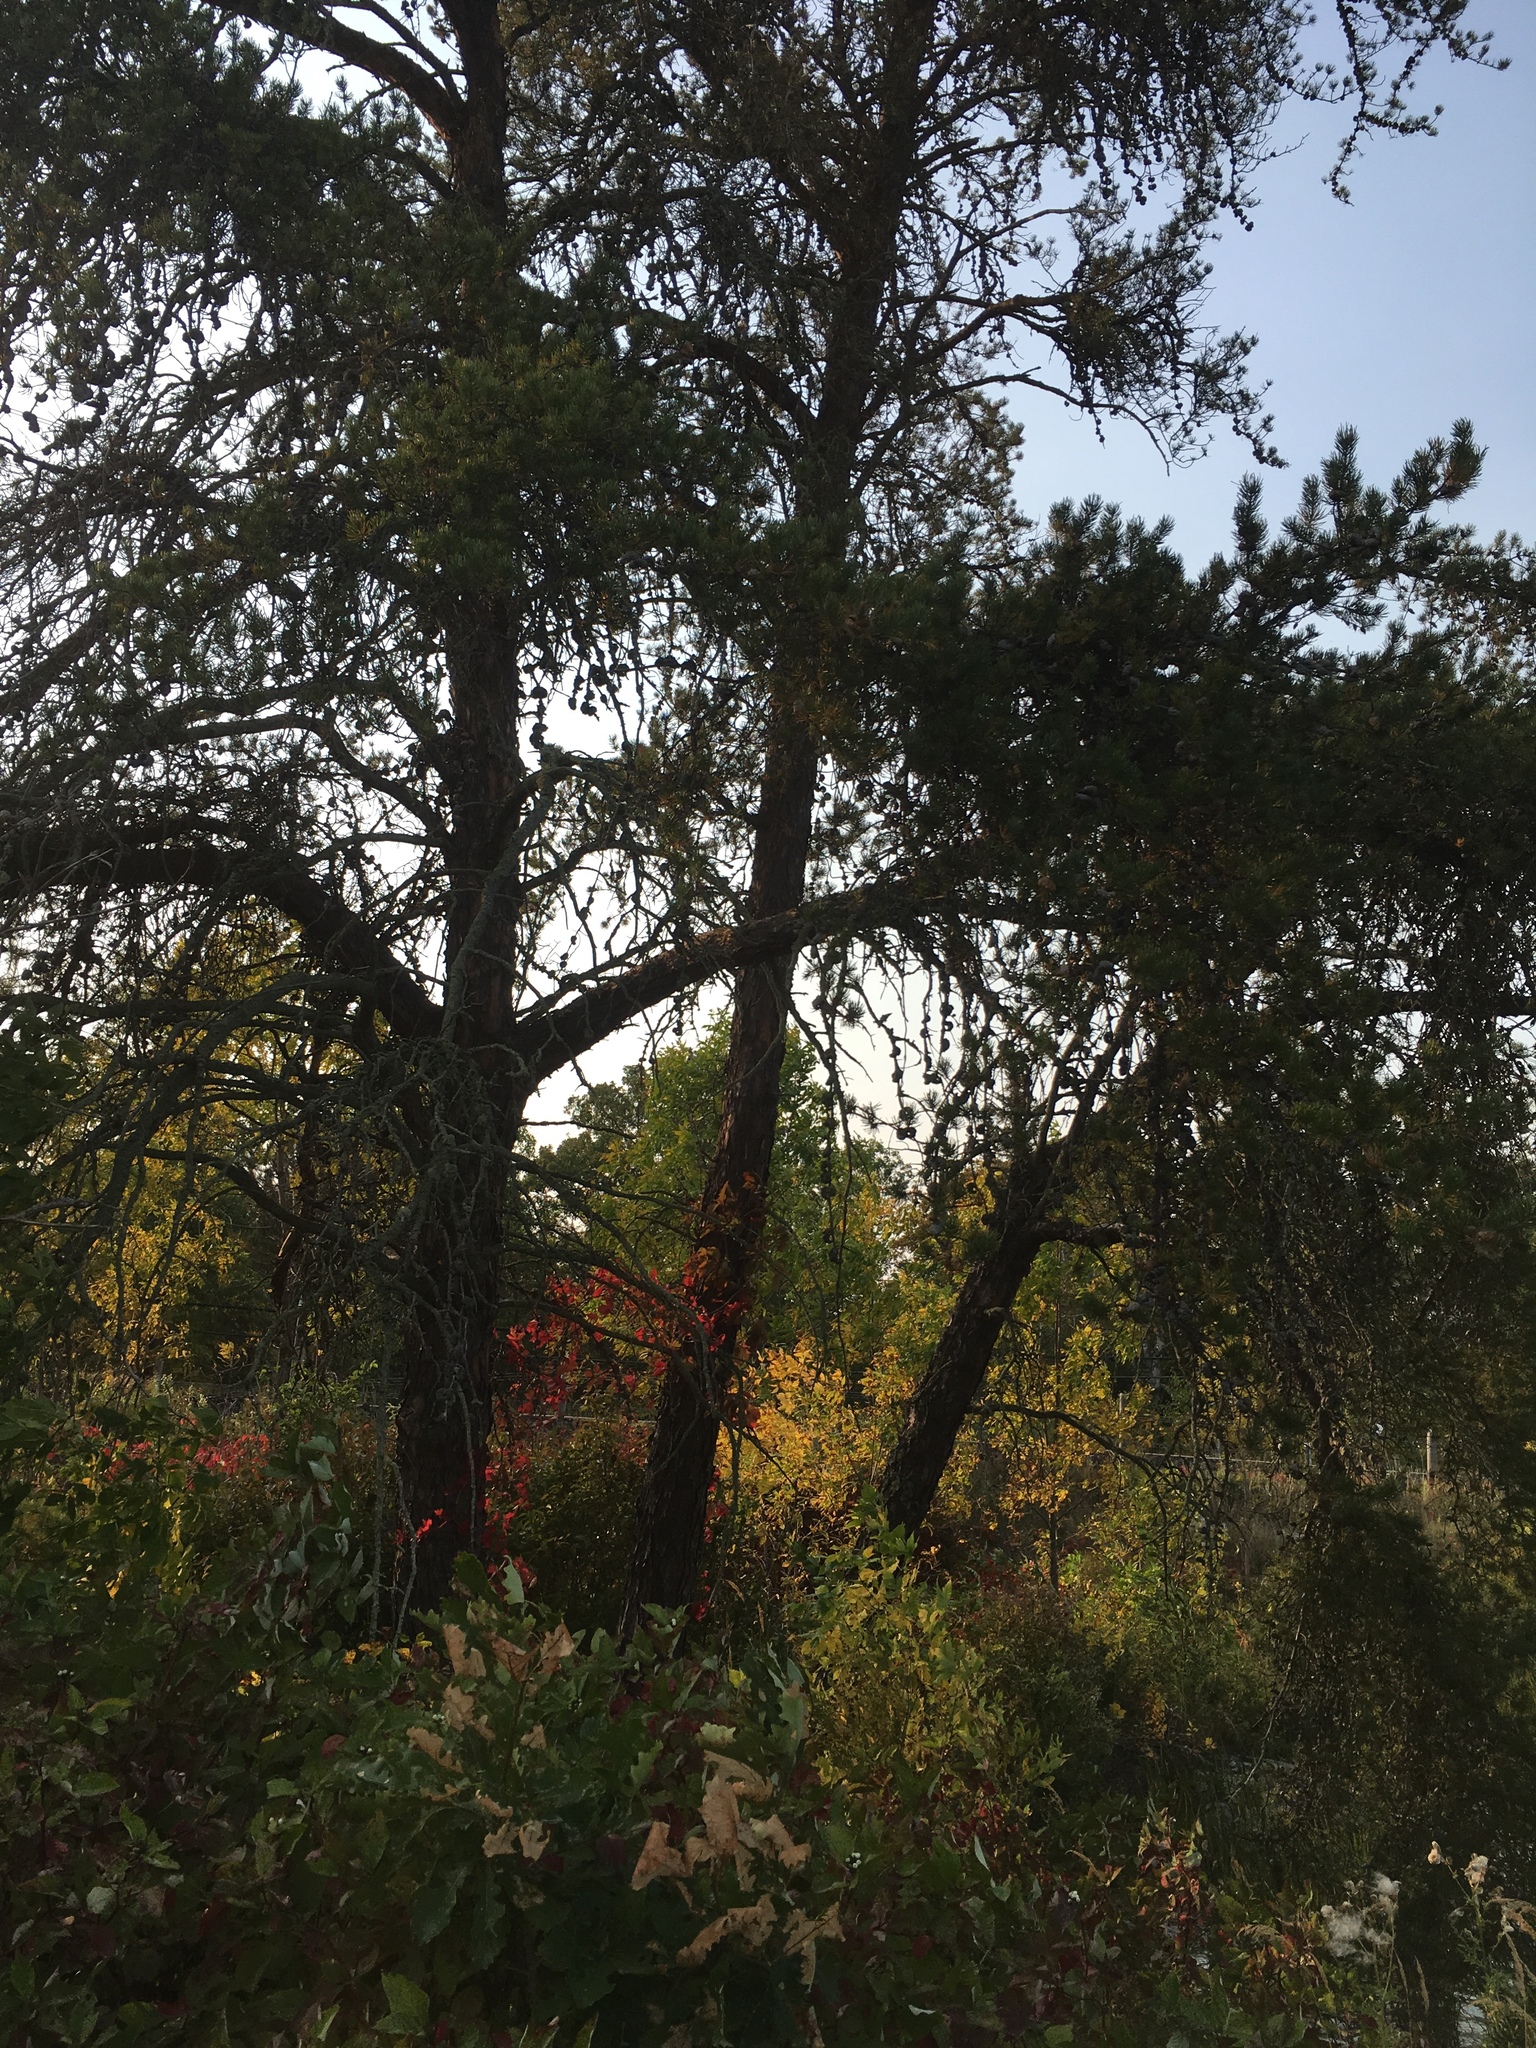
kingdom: Plantae
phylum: Tracheophyta
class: Pinopsida
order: Pinales
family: Pinaceae
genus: Pinus
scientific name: Pinus banksiana
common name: Jack pine
